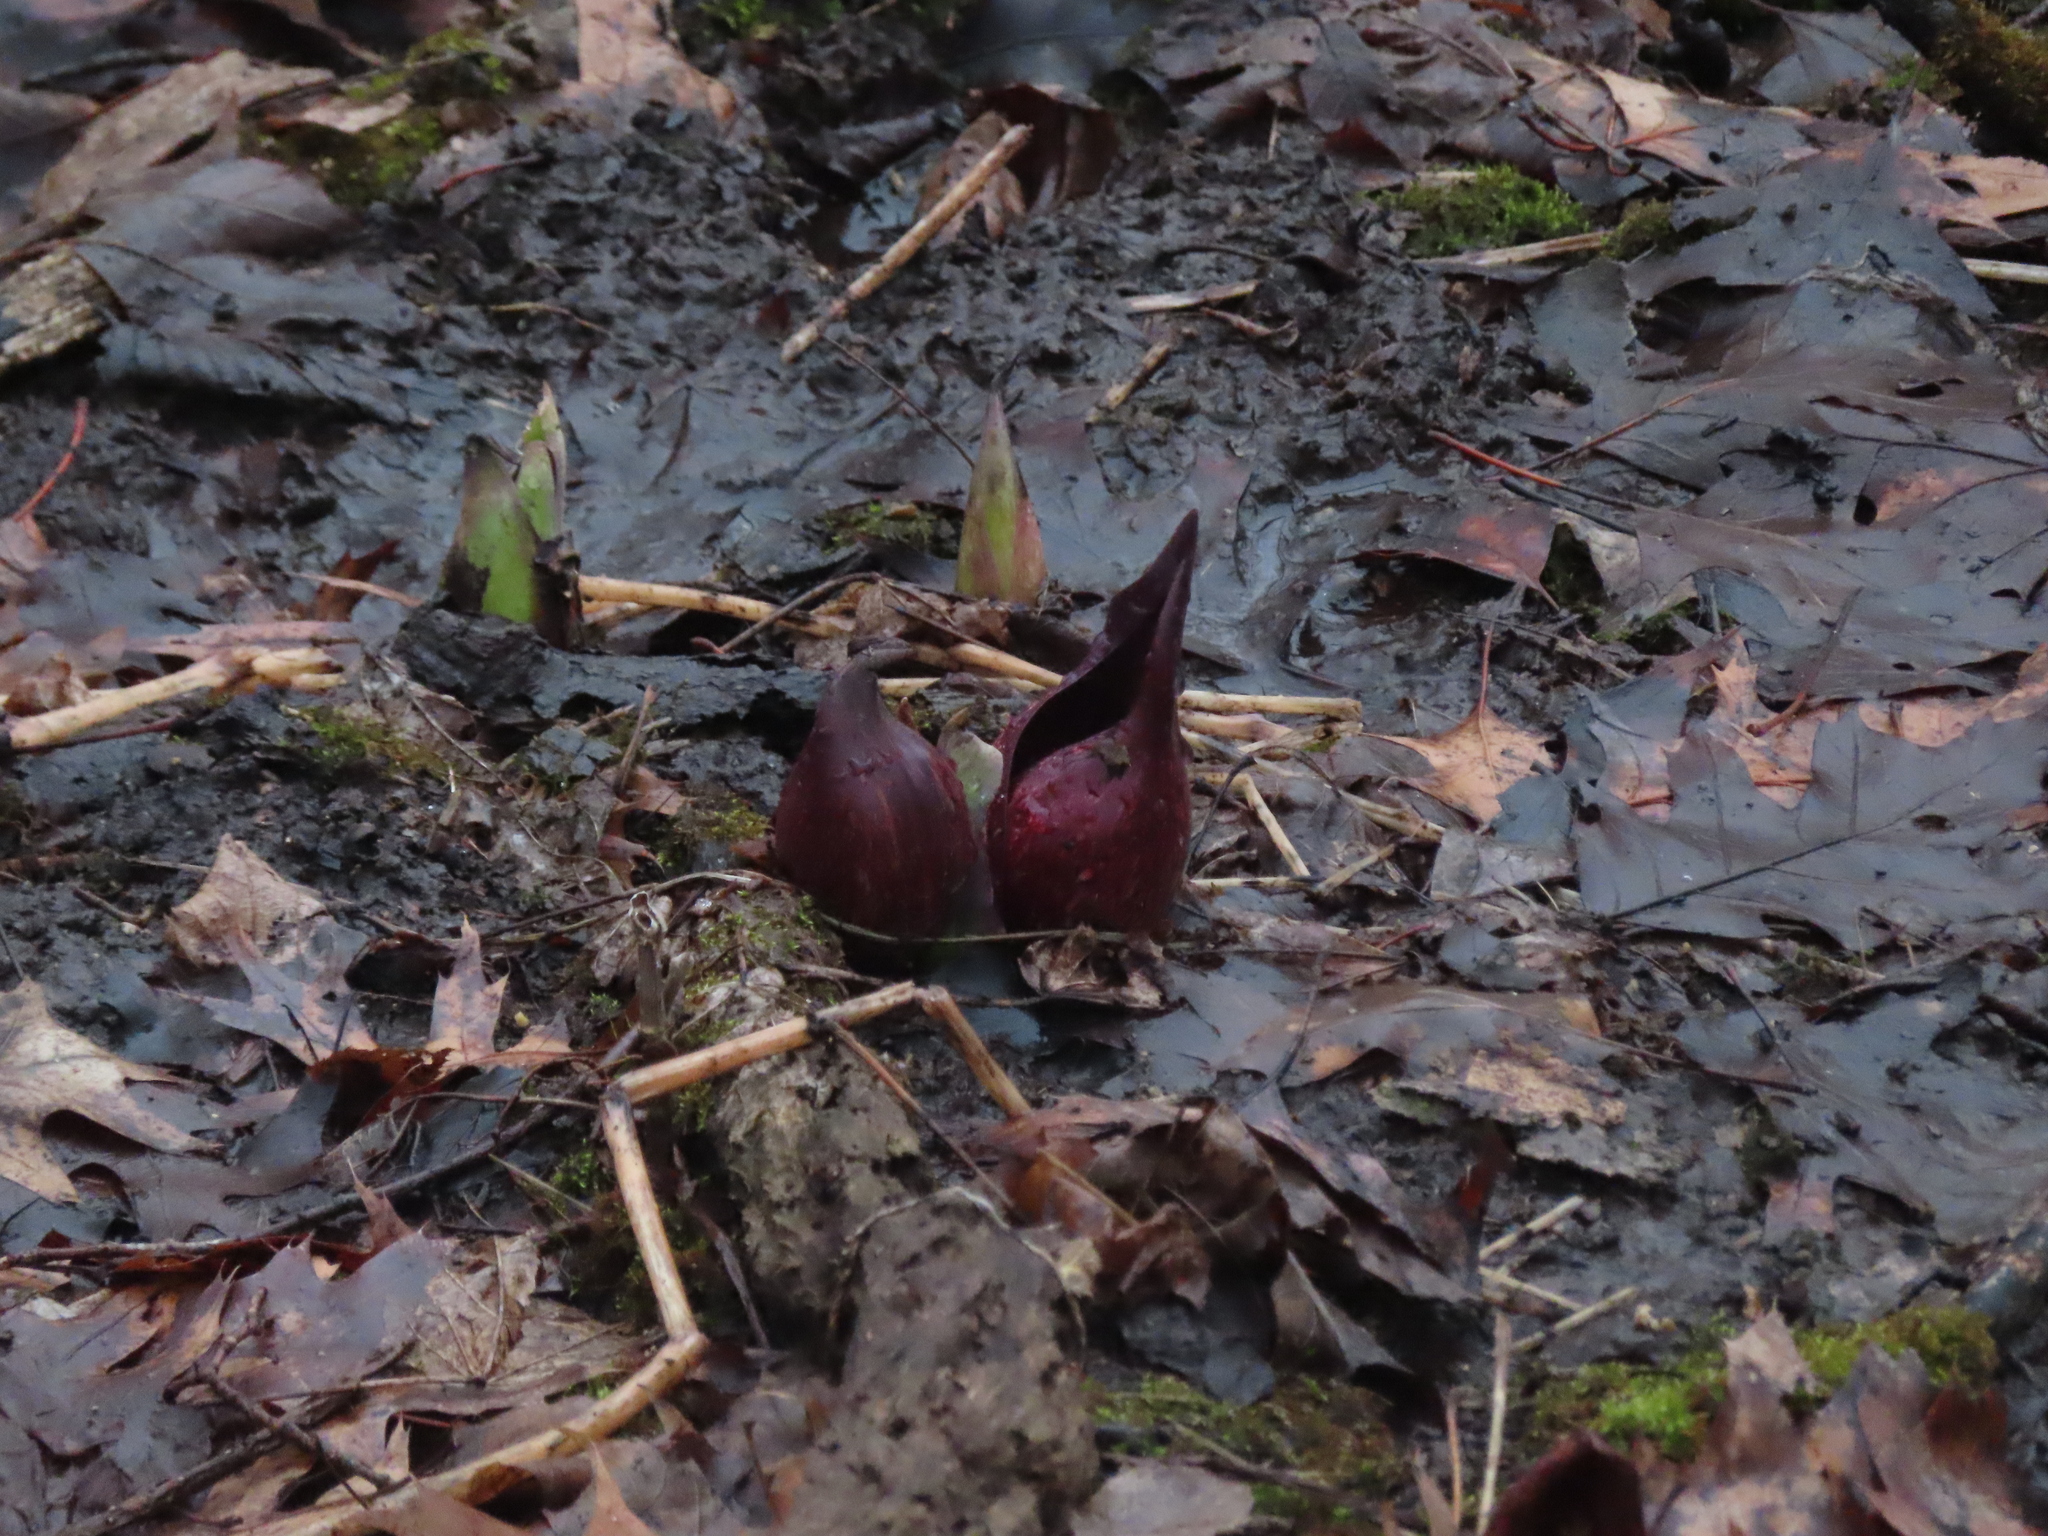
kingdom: Plantae
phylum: Tracheophyta
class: Liliopsida
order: Alismatales
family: Araceae
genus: Symplocarpus
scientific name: Symplocarpus foetidus
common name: Eastern skunk cabbage
